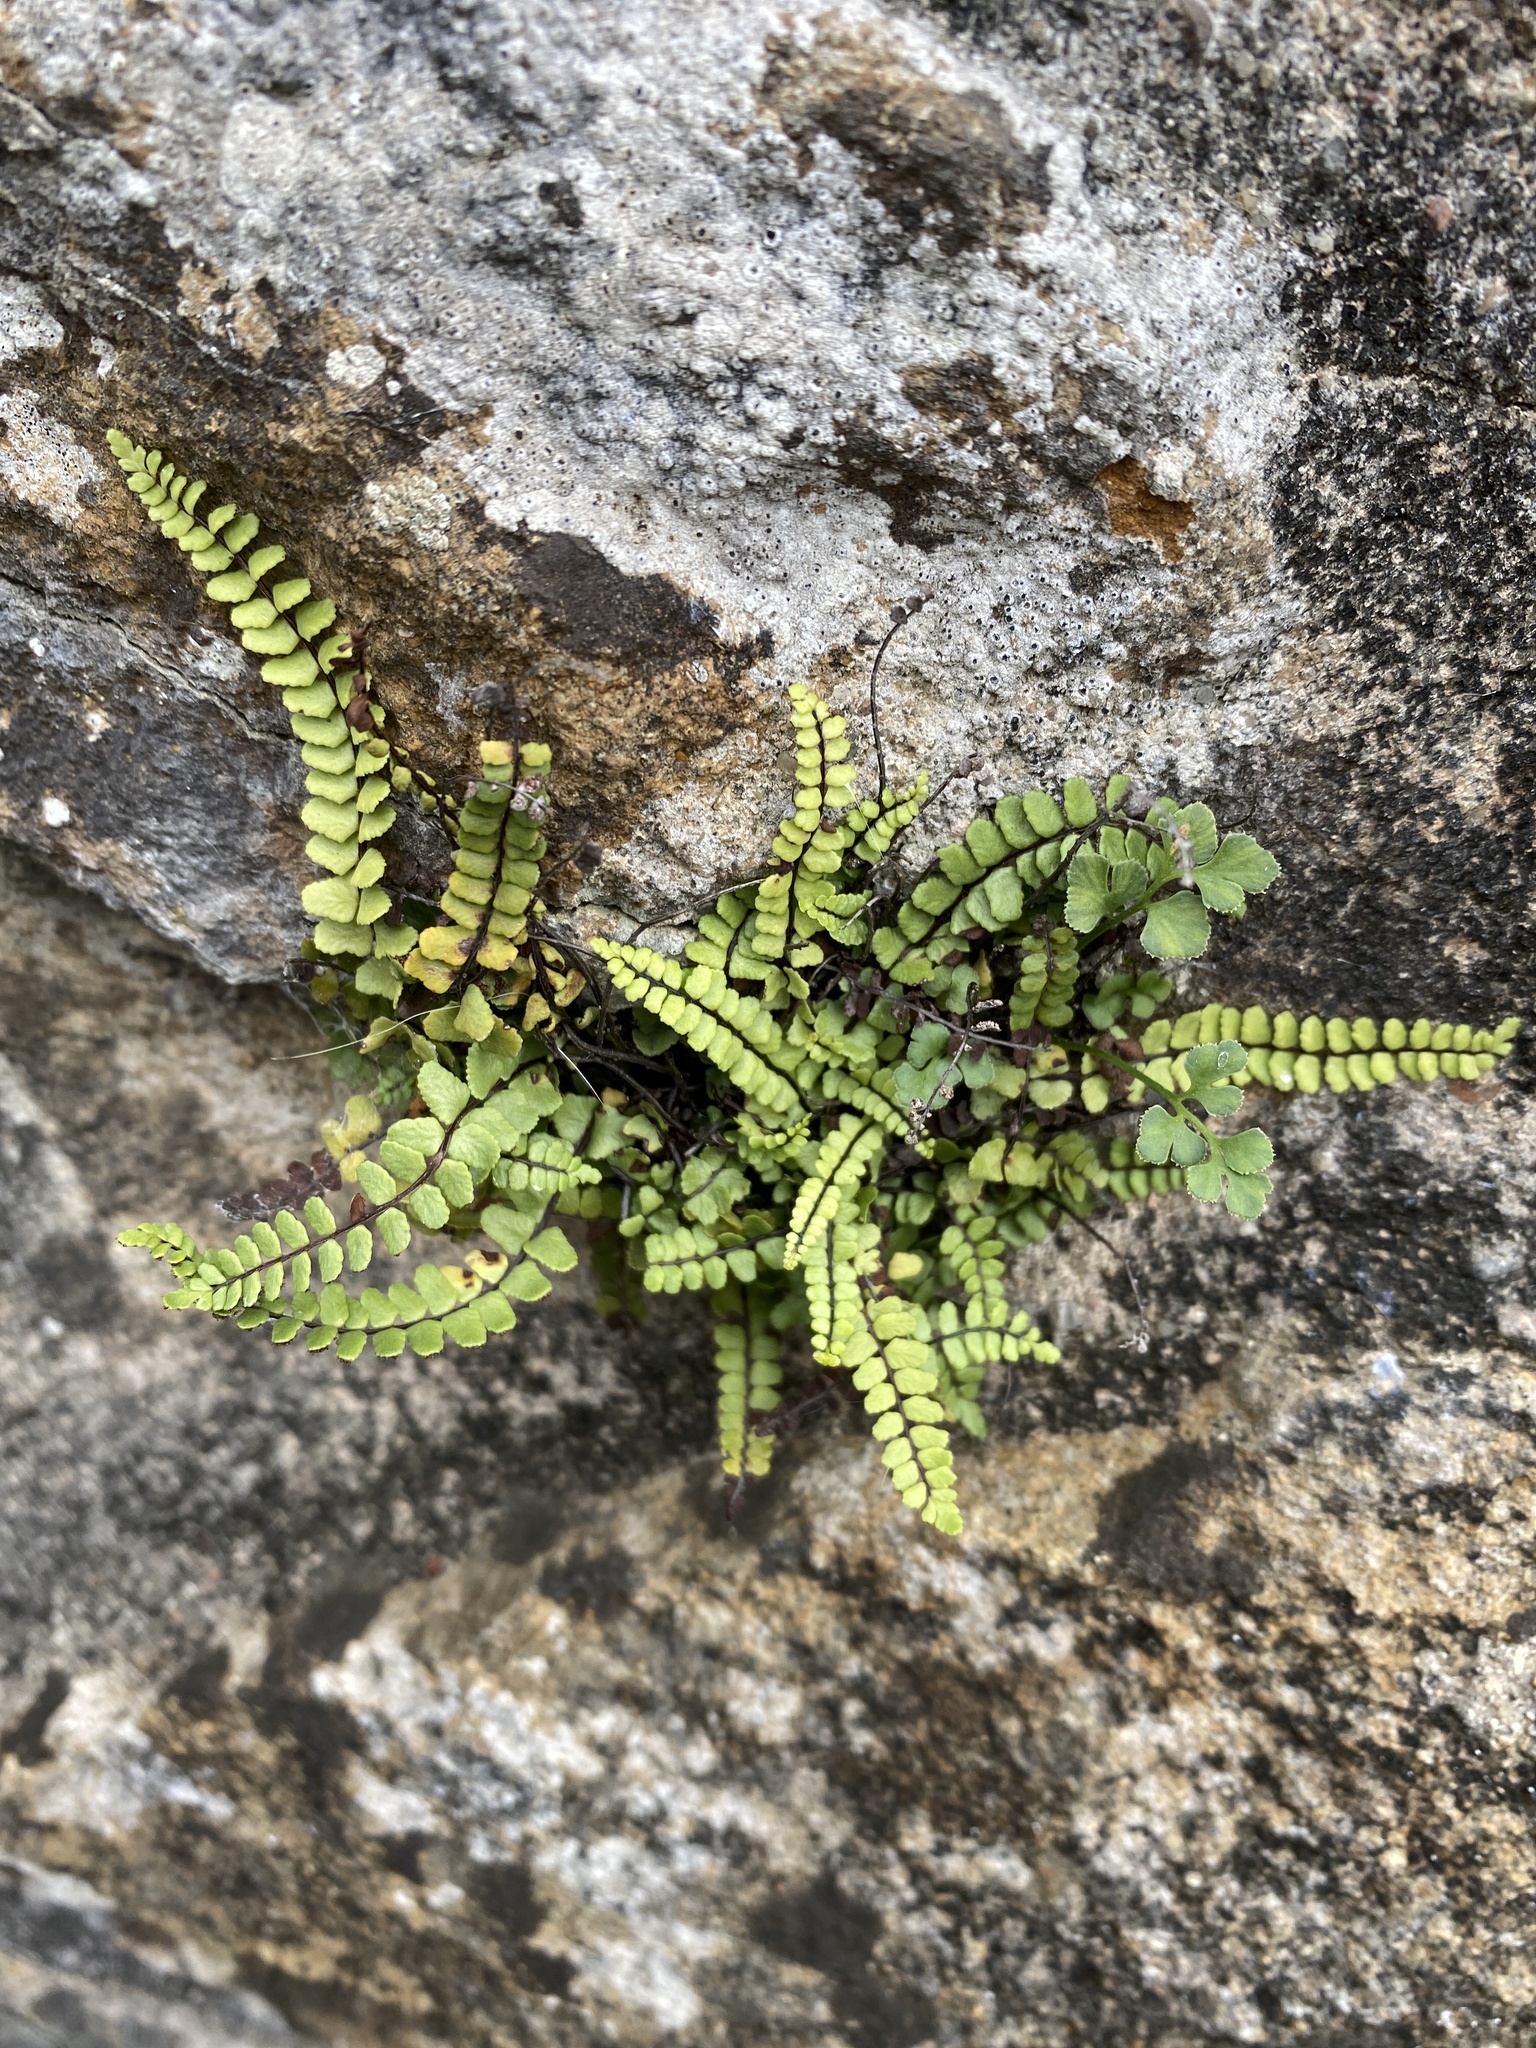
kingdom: Plantae
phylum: Tracheophyta
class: Polypodiopsida
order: Polypodiales
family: Aspleniaceae
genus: Asplenium
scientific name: Asplenium trichomanes
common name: Maidenhair spleenwort
